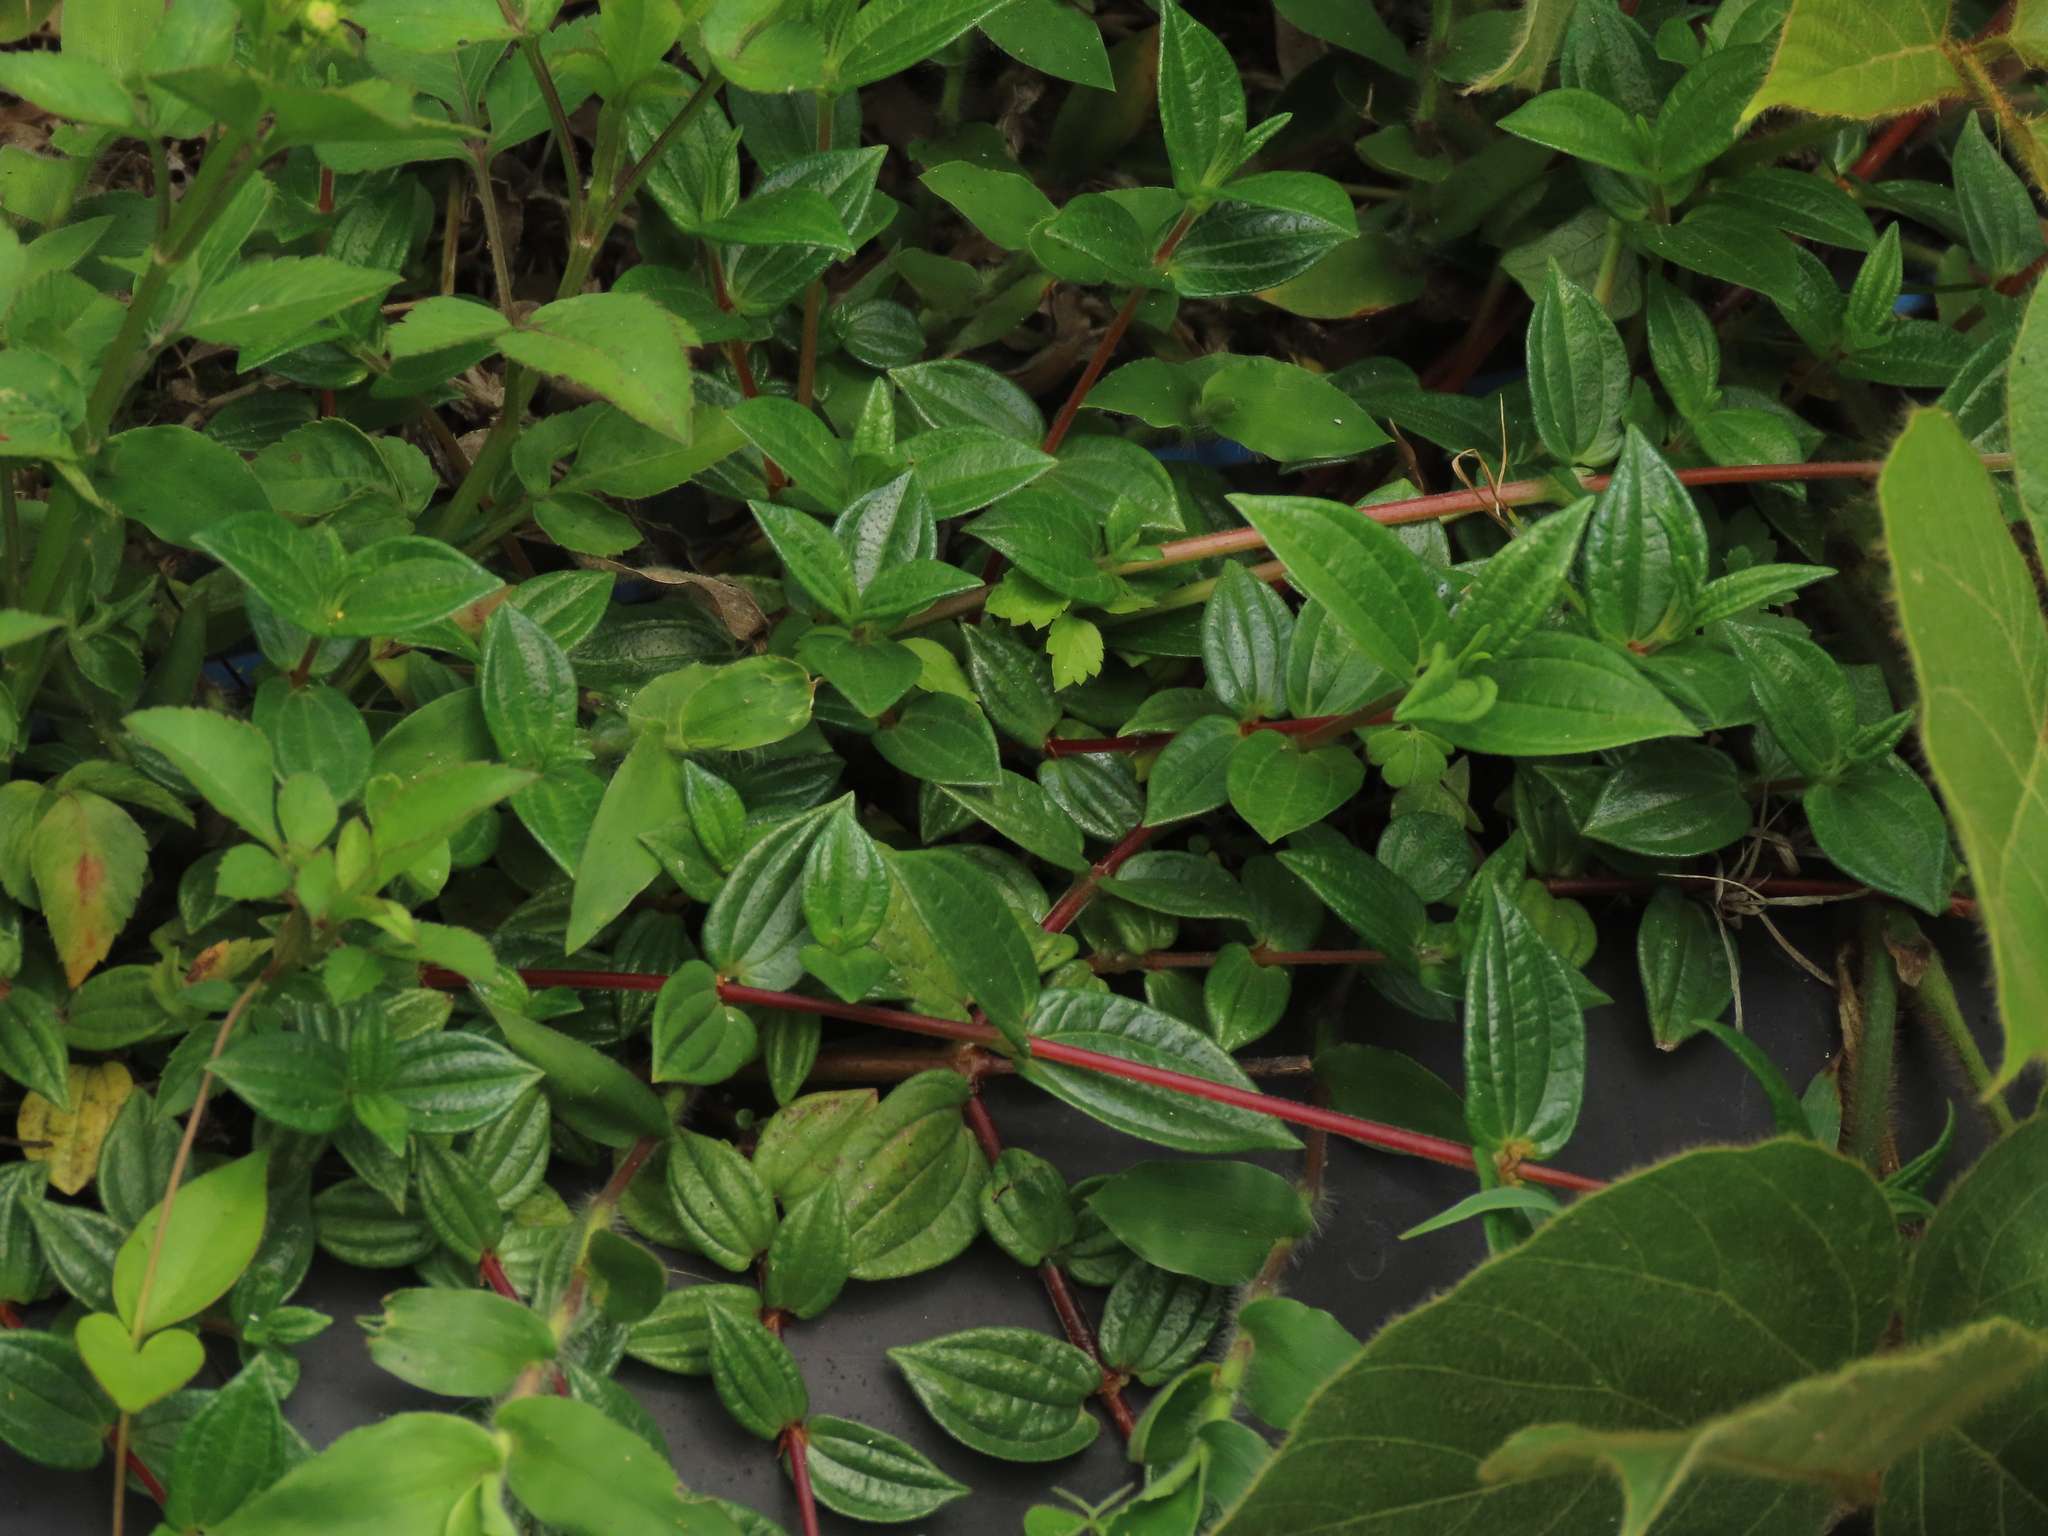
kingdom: Plantae
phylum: Tracheophyta
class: Magnoliopsida
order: Rosales
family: Urticaceae
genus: Gonostegia
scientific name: Gonostegia triandra
